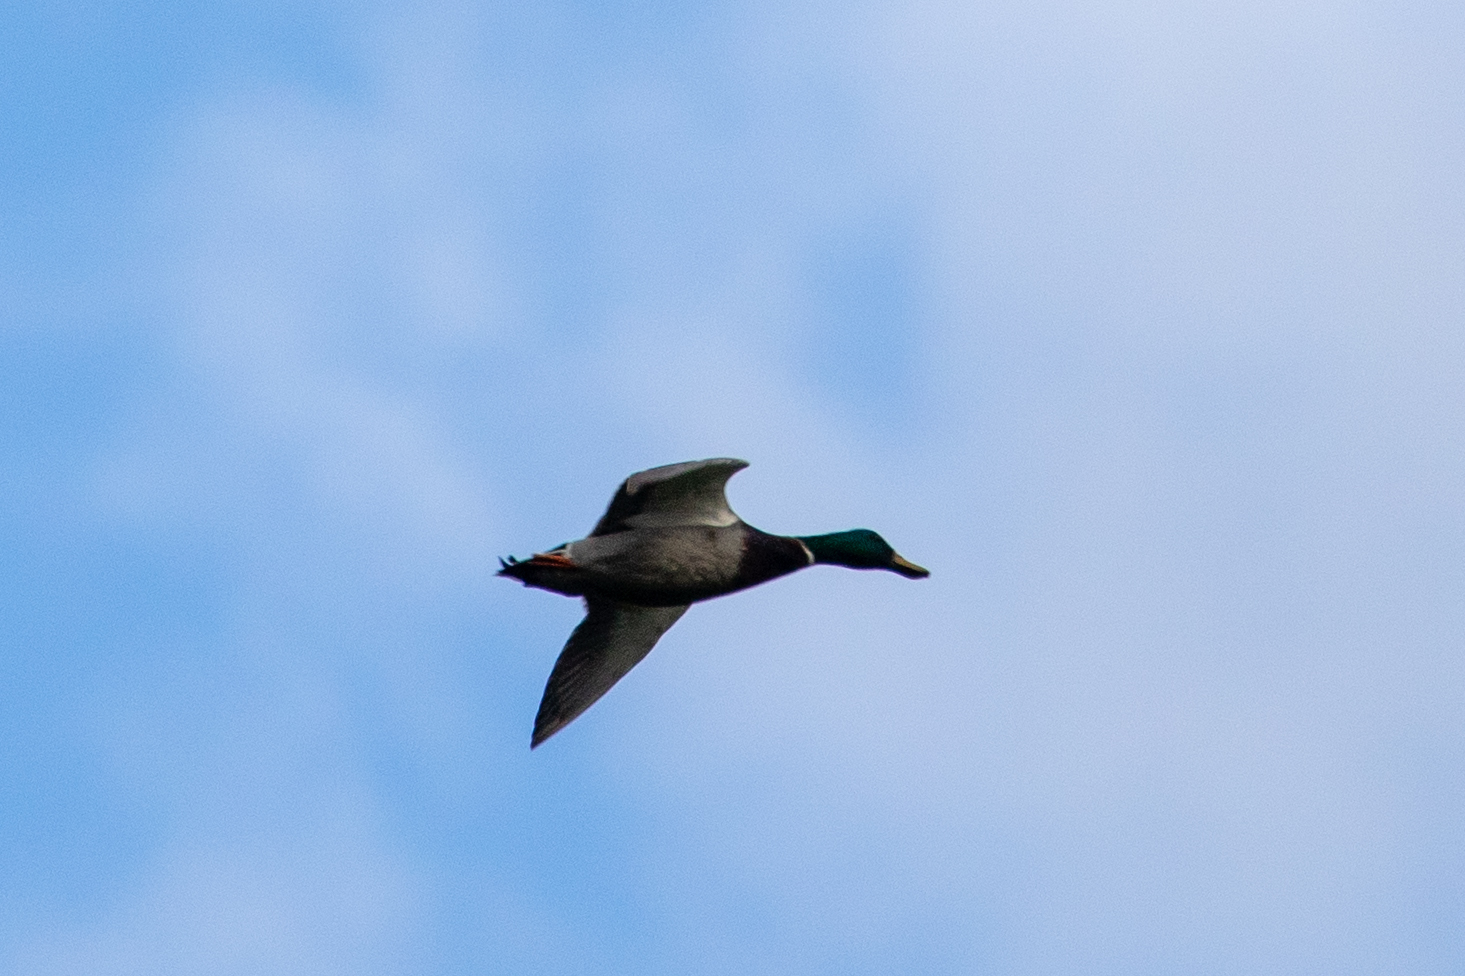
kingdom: Animalia
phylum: Chordata
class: Aves
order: Anseriformes
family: Anatidae
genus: Anas
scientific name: Anas platyrhynchos
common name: Mallard
